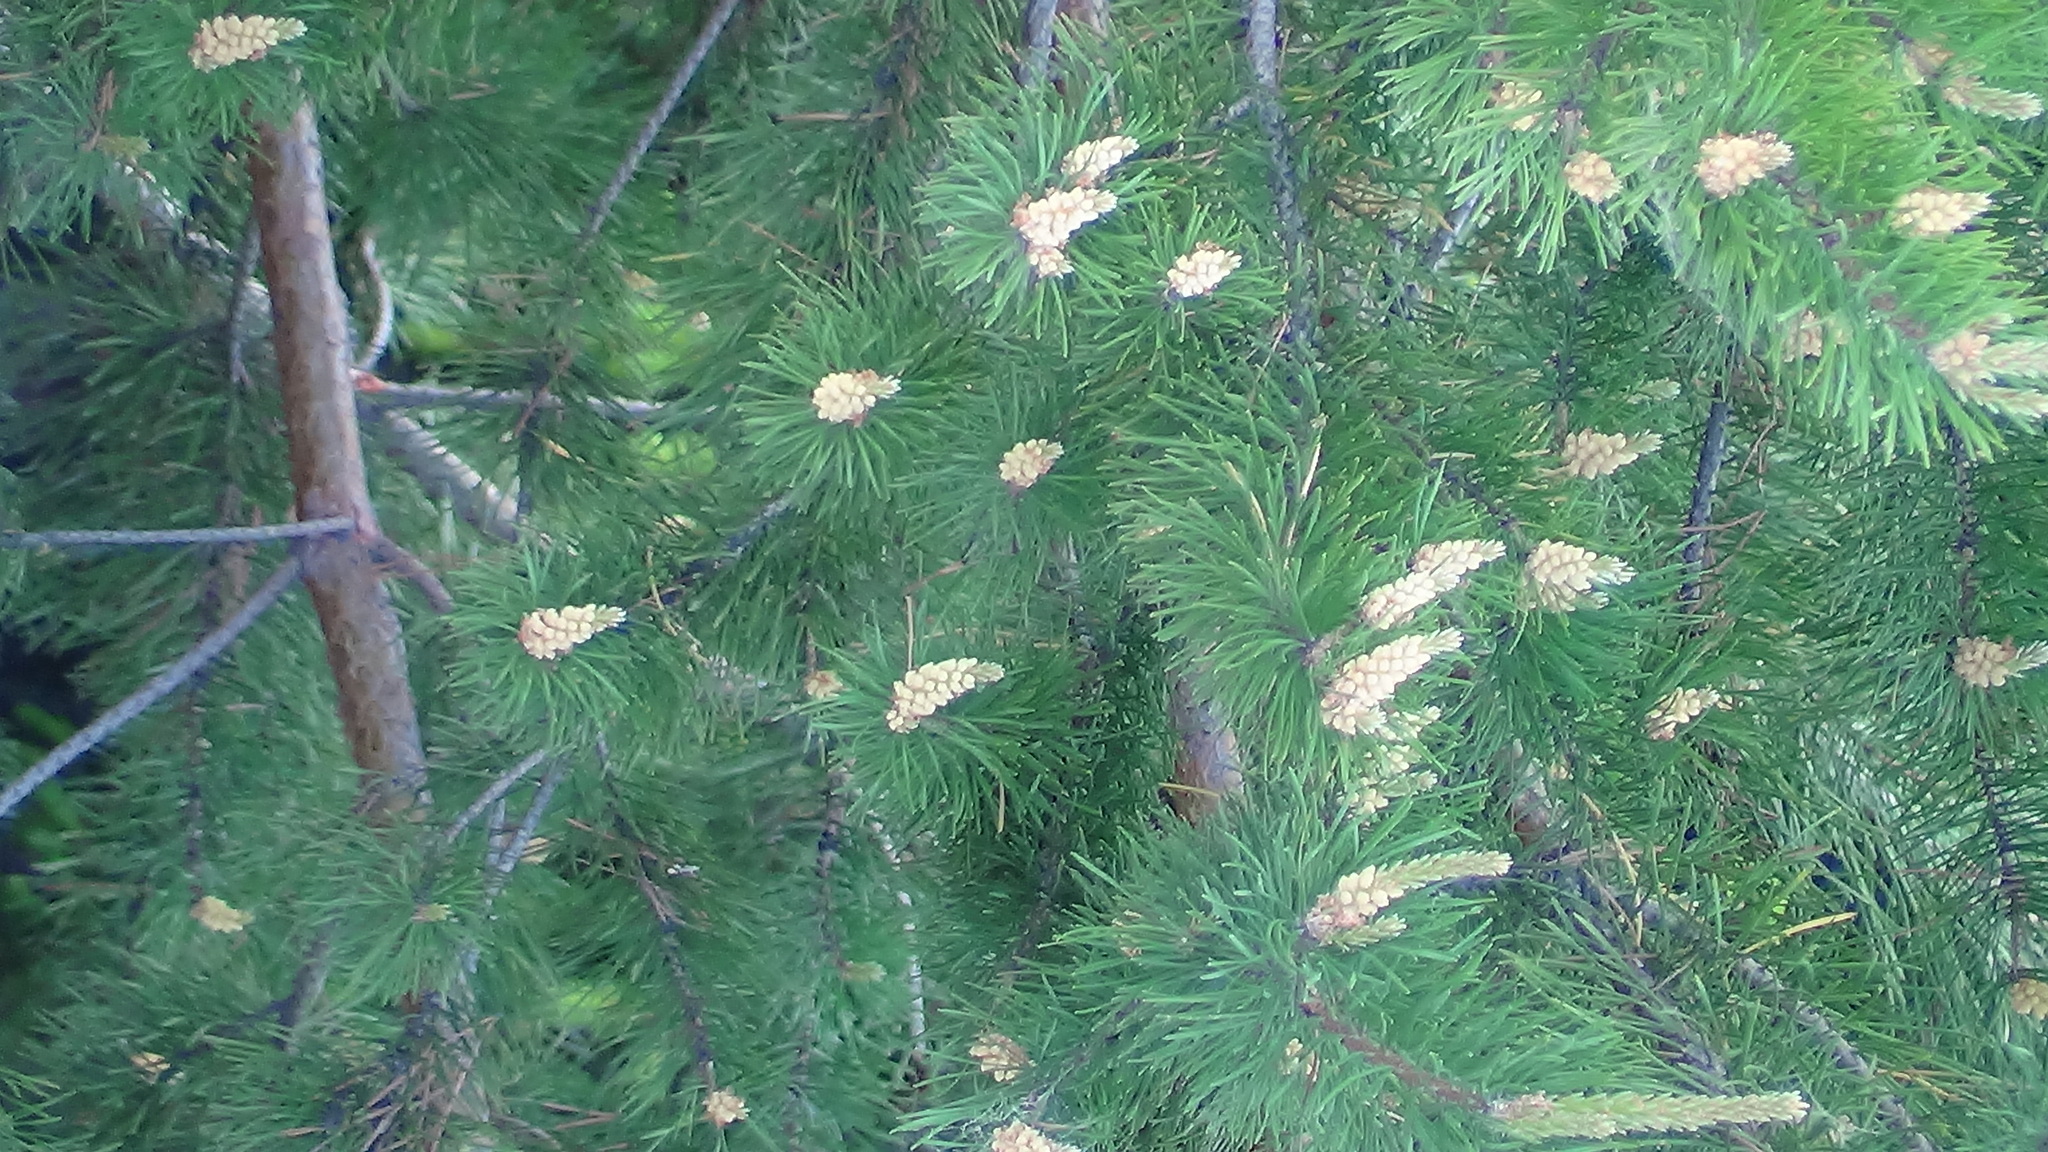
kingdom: Plantae
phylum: Tracheophyta
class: Pinopsida
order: Pinales
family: Pinaceae
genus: Pinus
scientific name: Pinus sylvestris
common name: Scots pine
